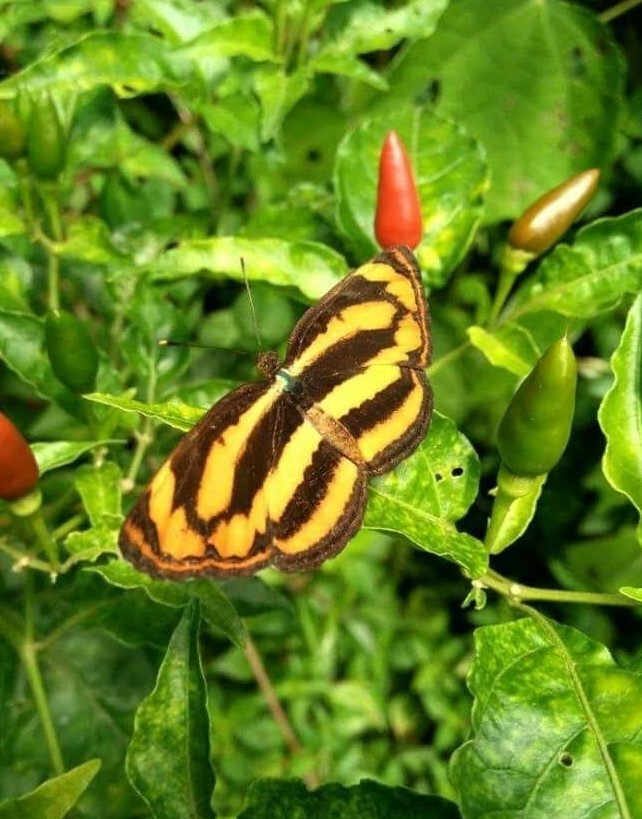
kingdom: Animalia
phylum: Arthropoda
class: Insecta
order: Lepidoptera
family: Nymphalidae
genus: Pantoporia
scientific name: Pantoporia hordonia
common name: Common lascar
